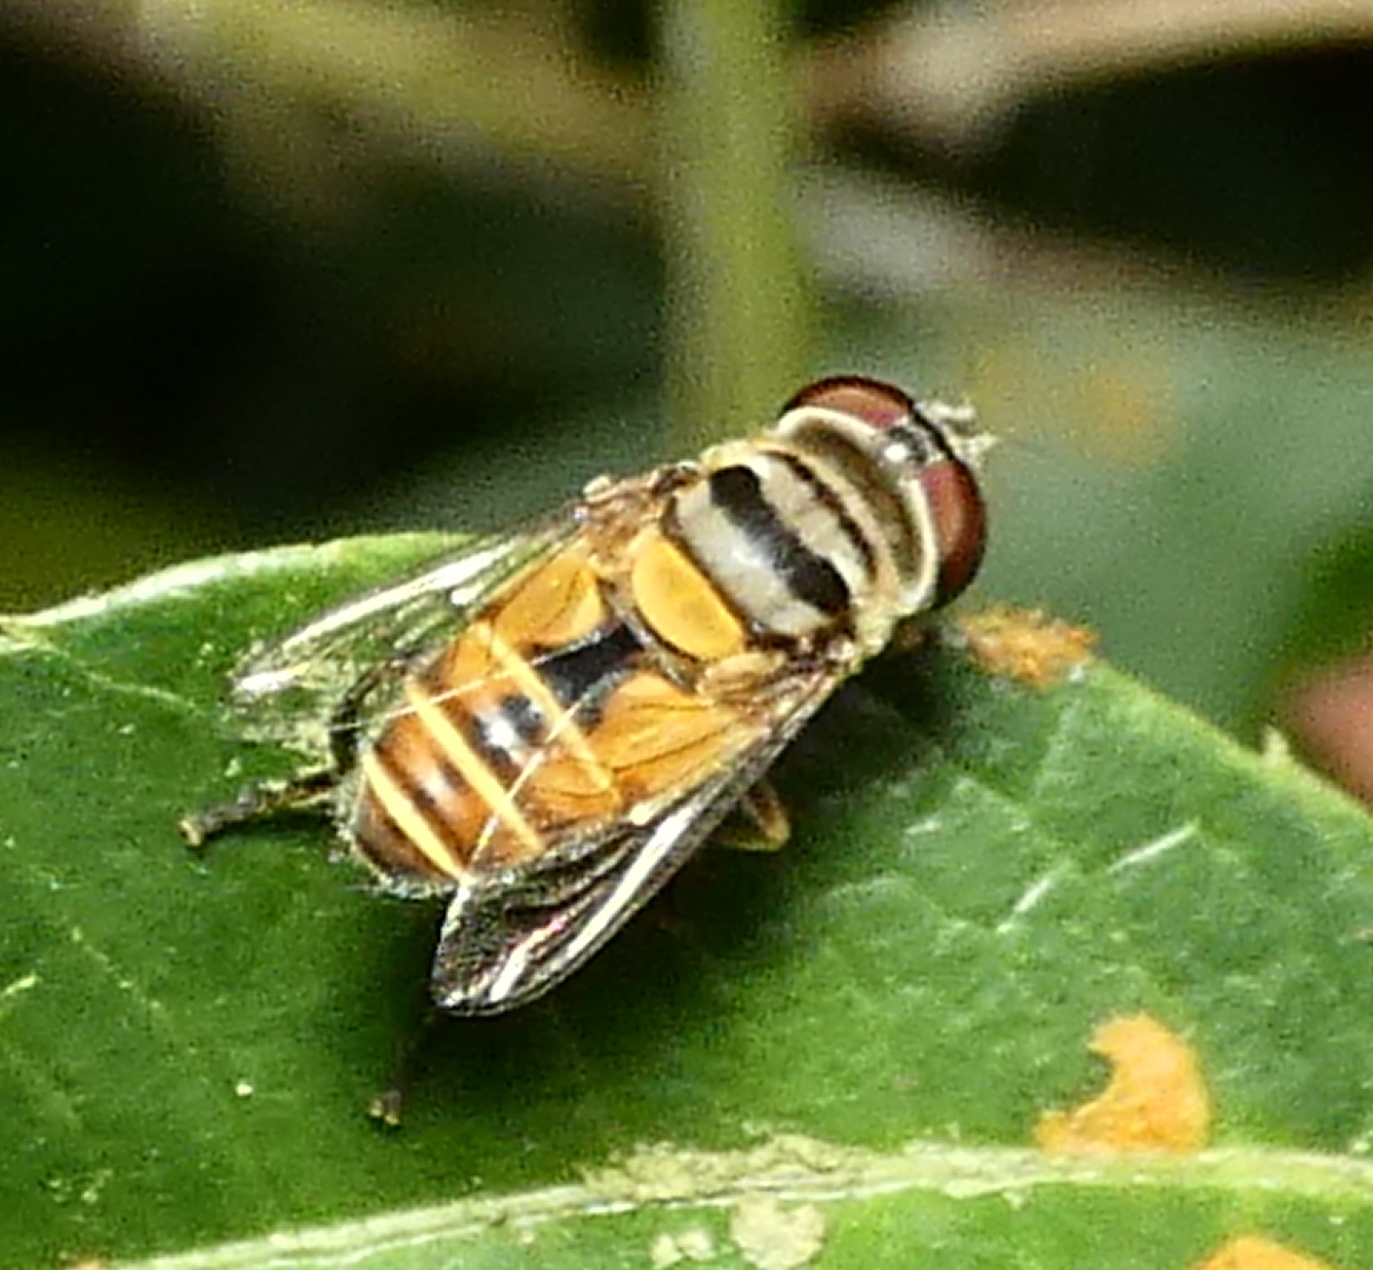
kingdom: Animalia
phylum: Arthropoda
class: Insecta
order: Diptera
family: Syrphidae
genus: Palpada
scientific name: Palpada
